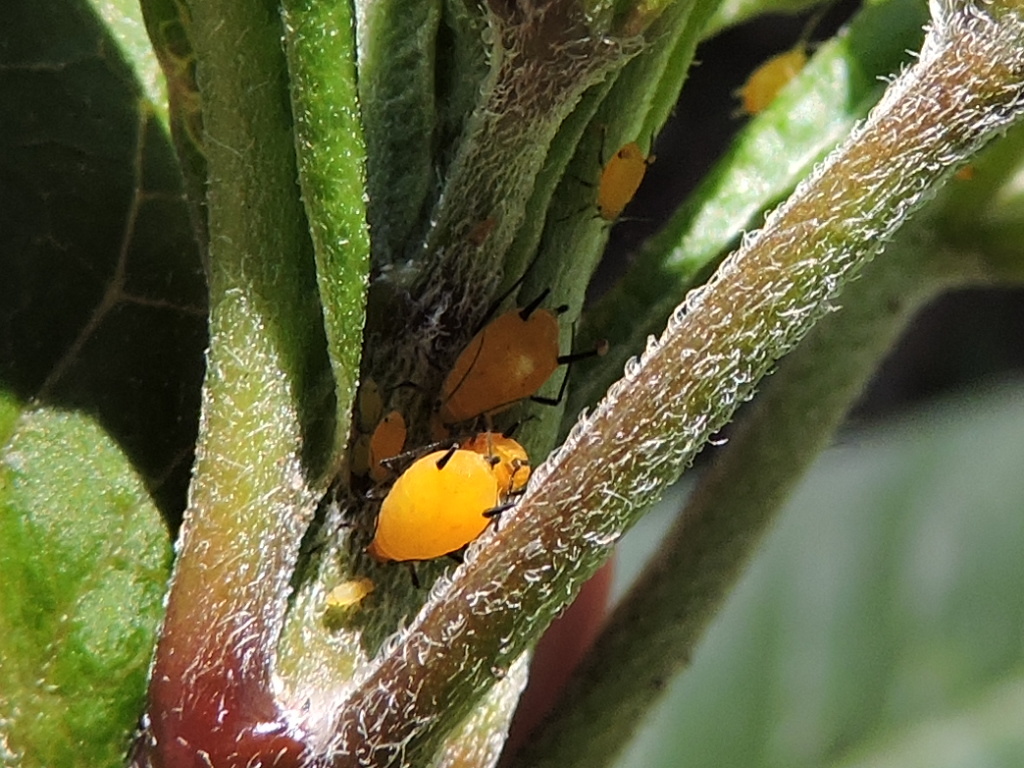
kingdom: Animalia
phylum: Arthropoda
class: Insecta
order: Hemiptera
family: Aphididae
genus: Aphis
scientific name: Aphis nerii
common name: Oleander aphid
